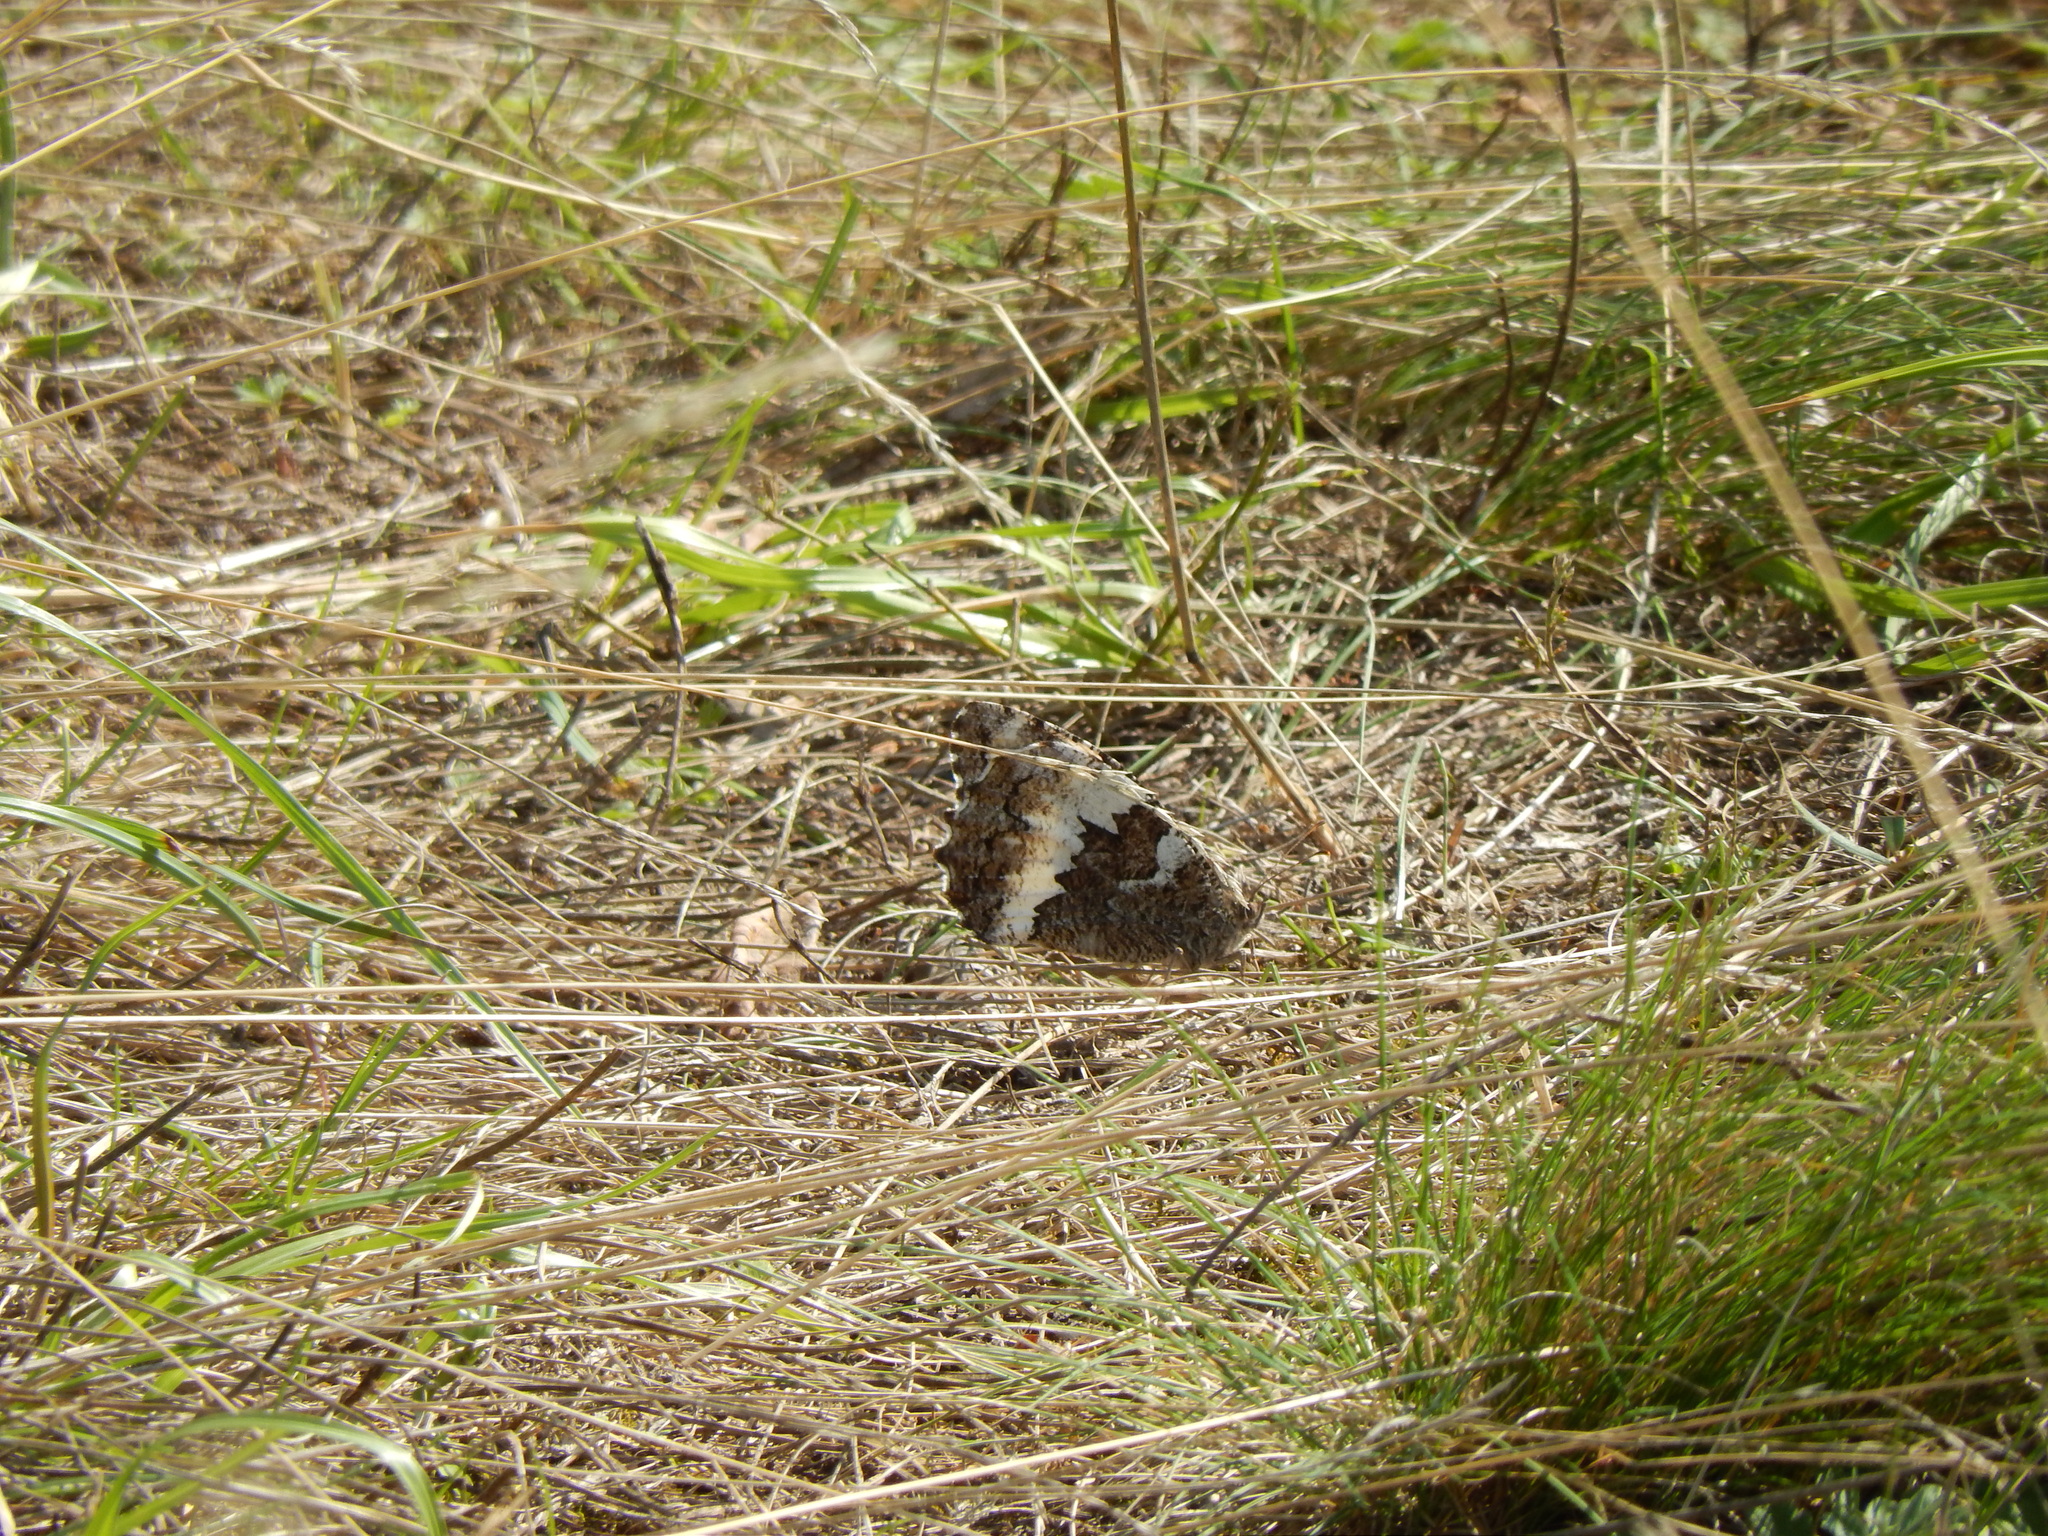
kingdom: Animalia
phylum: Arthropoda
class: Insecta
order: Lepidoptera
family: Lycaenidae
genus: Loweia
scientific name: Loweia tityrus
